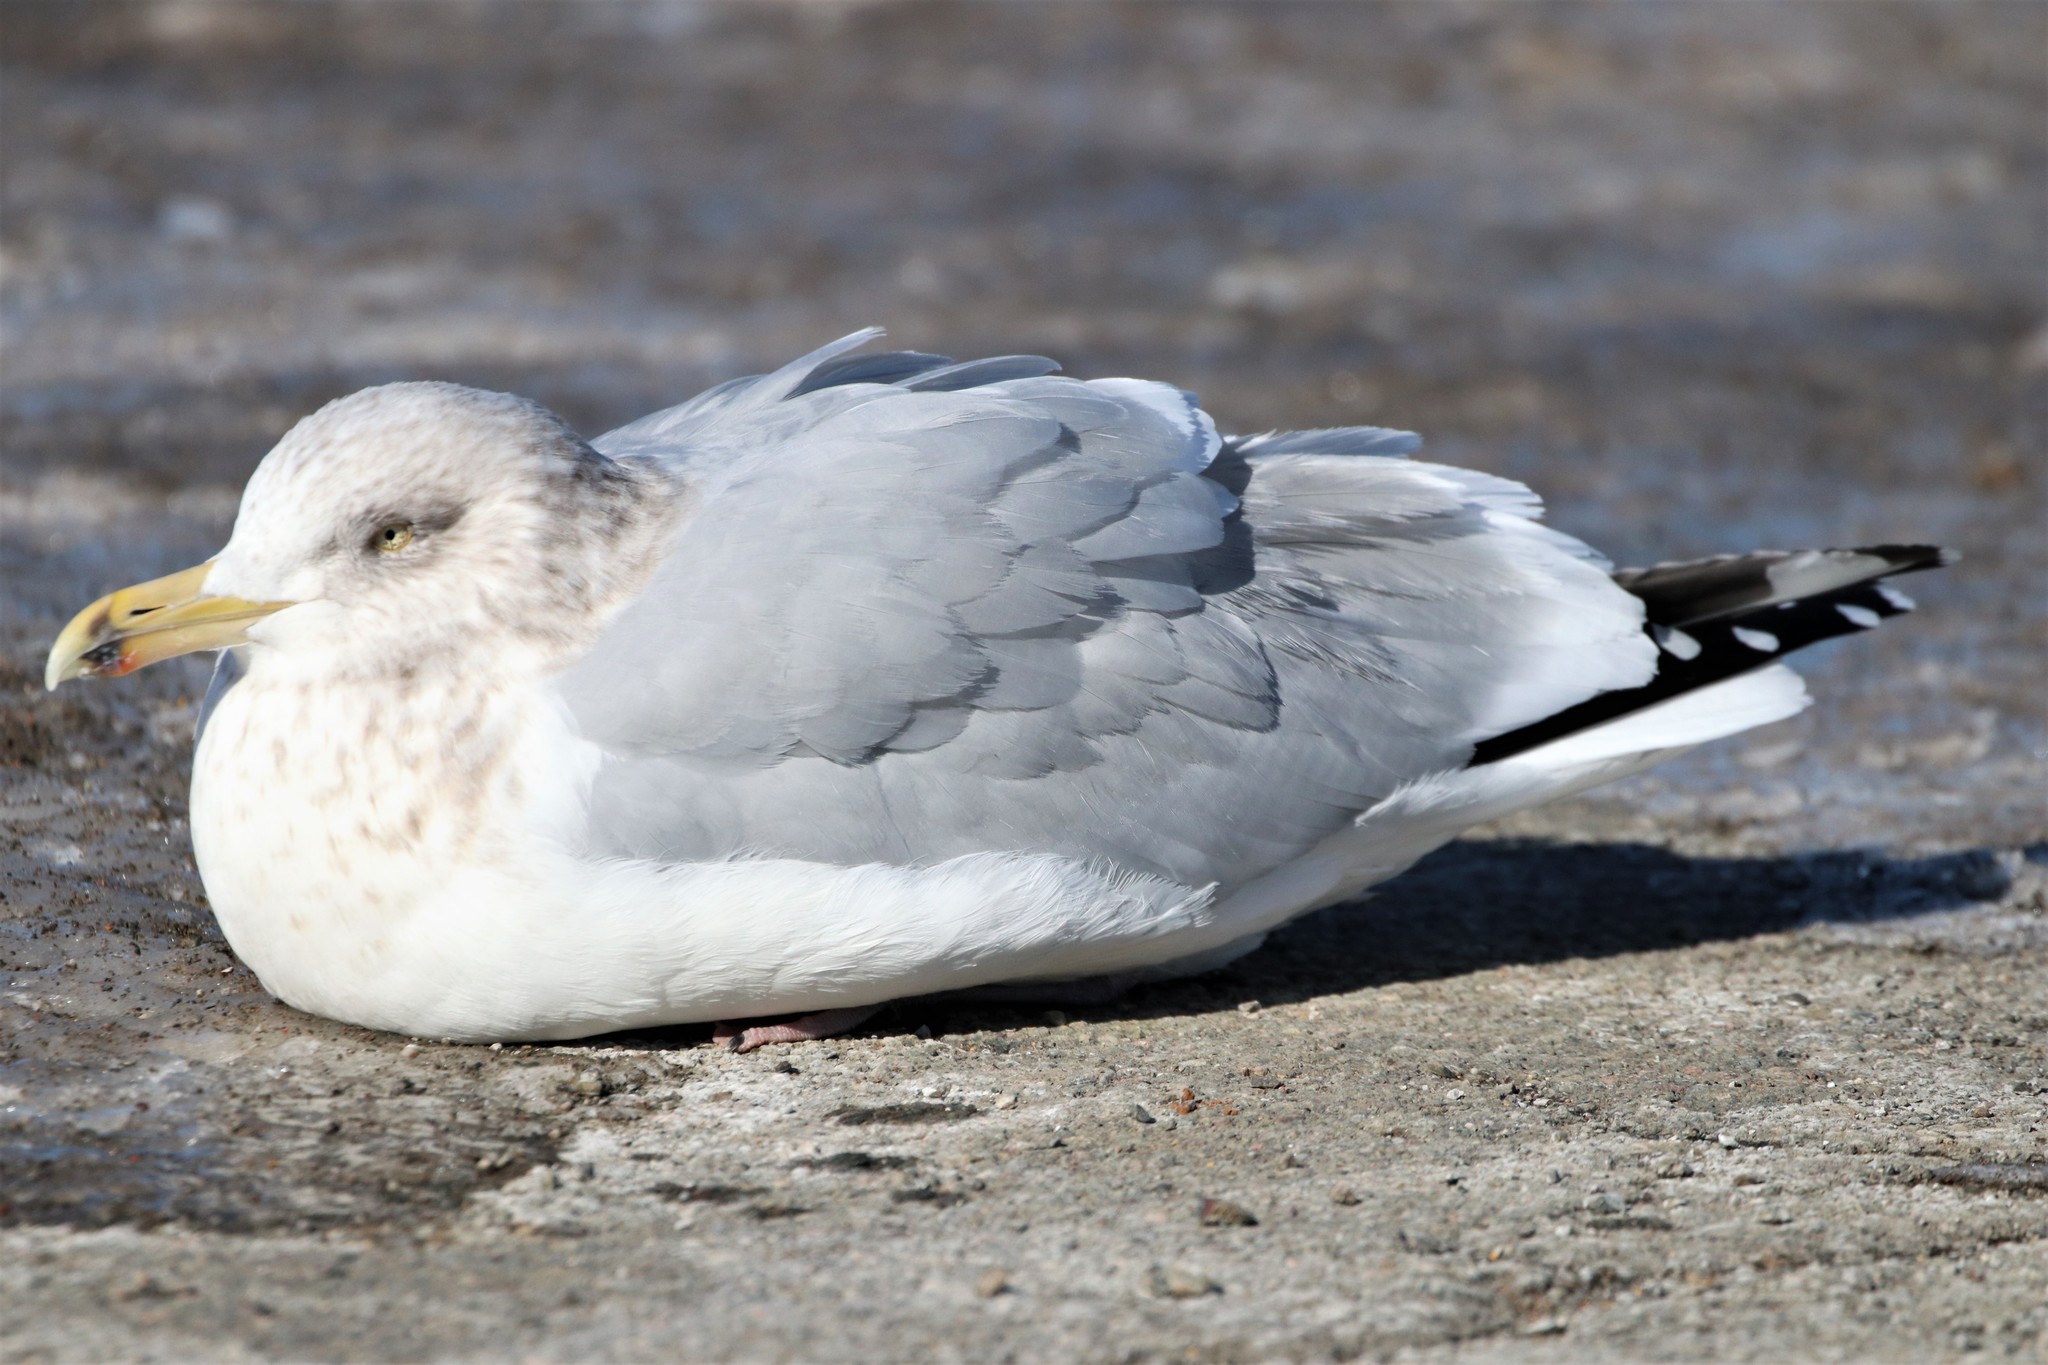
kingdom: Animalia
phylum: Chordata
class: Aves
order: Charadriiformes
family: Laridae
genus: Larus
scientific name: Larus argentatus
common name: Herring gull
